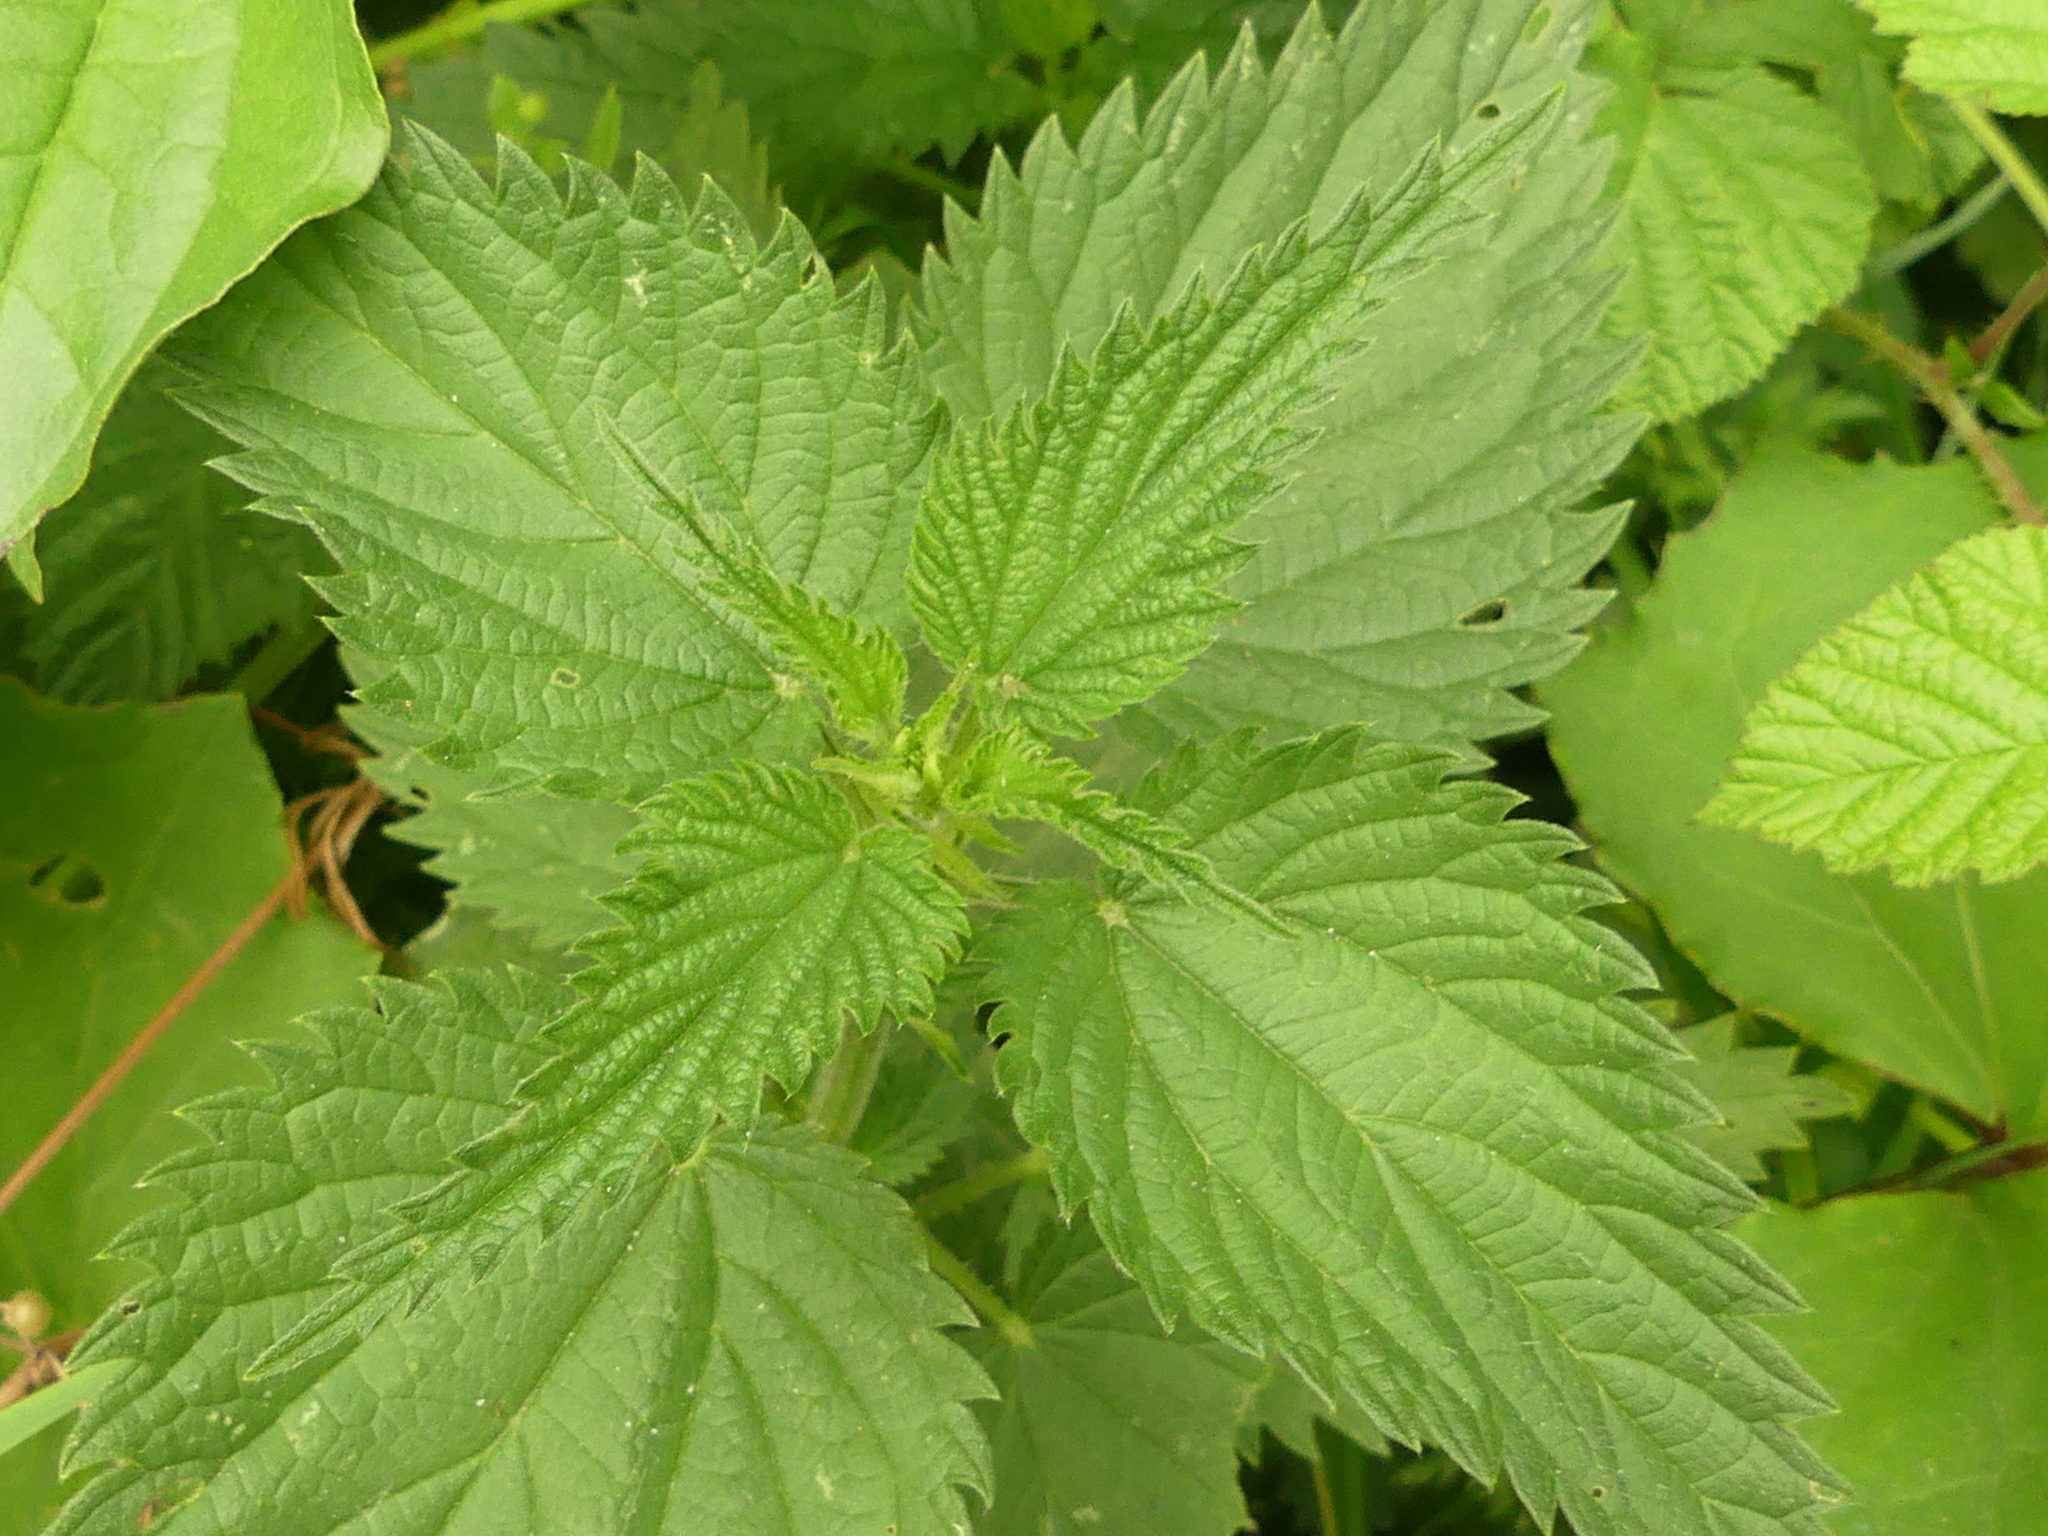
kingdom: Plantae
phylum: Tracheophyta
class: Magnoliopsida
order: Rosales
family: Urticaceae
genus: Urtica
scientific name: Urtica dioica
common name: Common nettle
